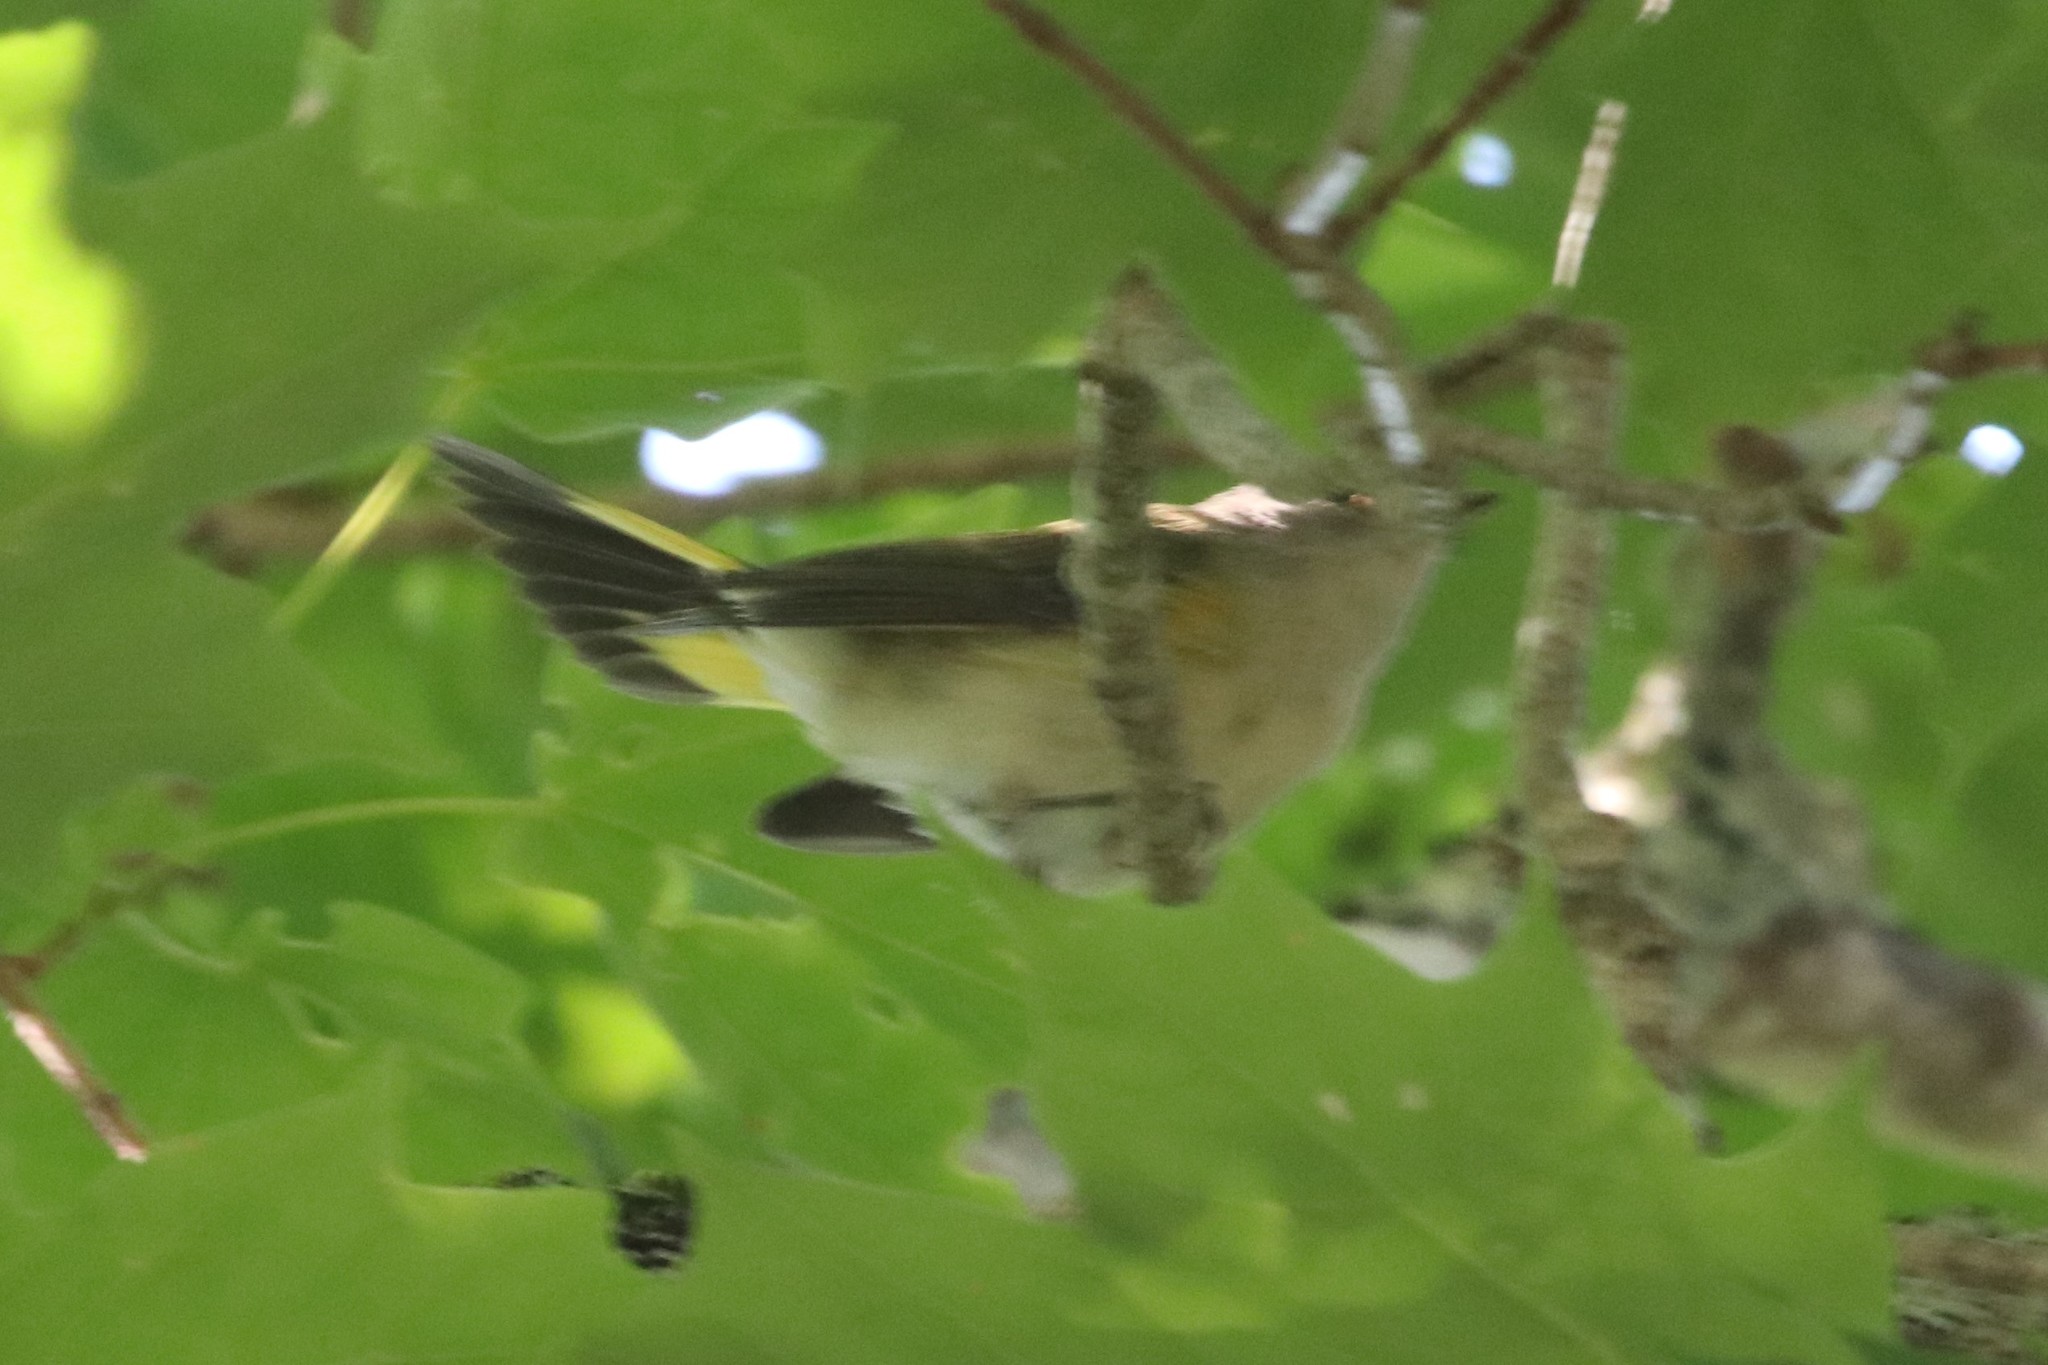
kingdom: Animalia
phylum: Chordata
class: Aves
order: Passeriformes
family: Parulidae
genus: Setophaga
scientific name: Setophaga ruticilla
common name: American redstart
